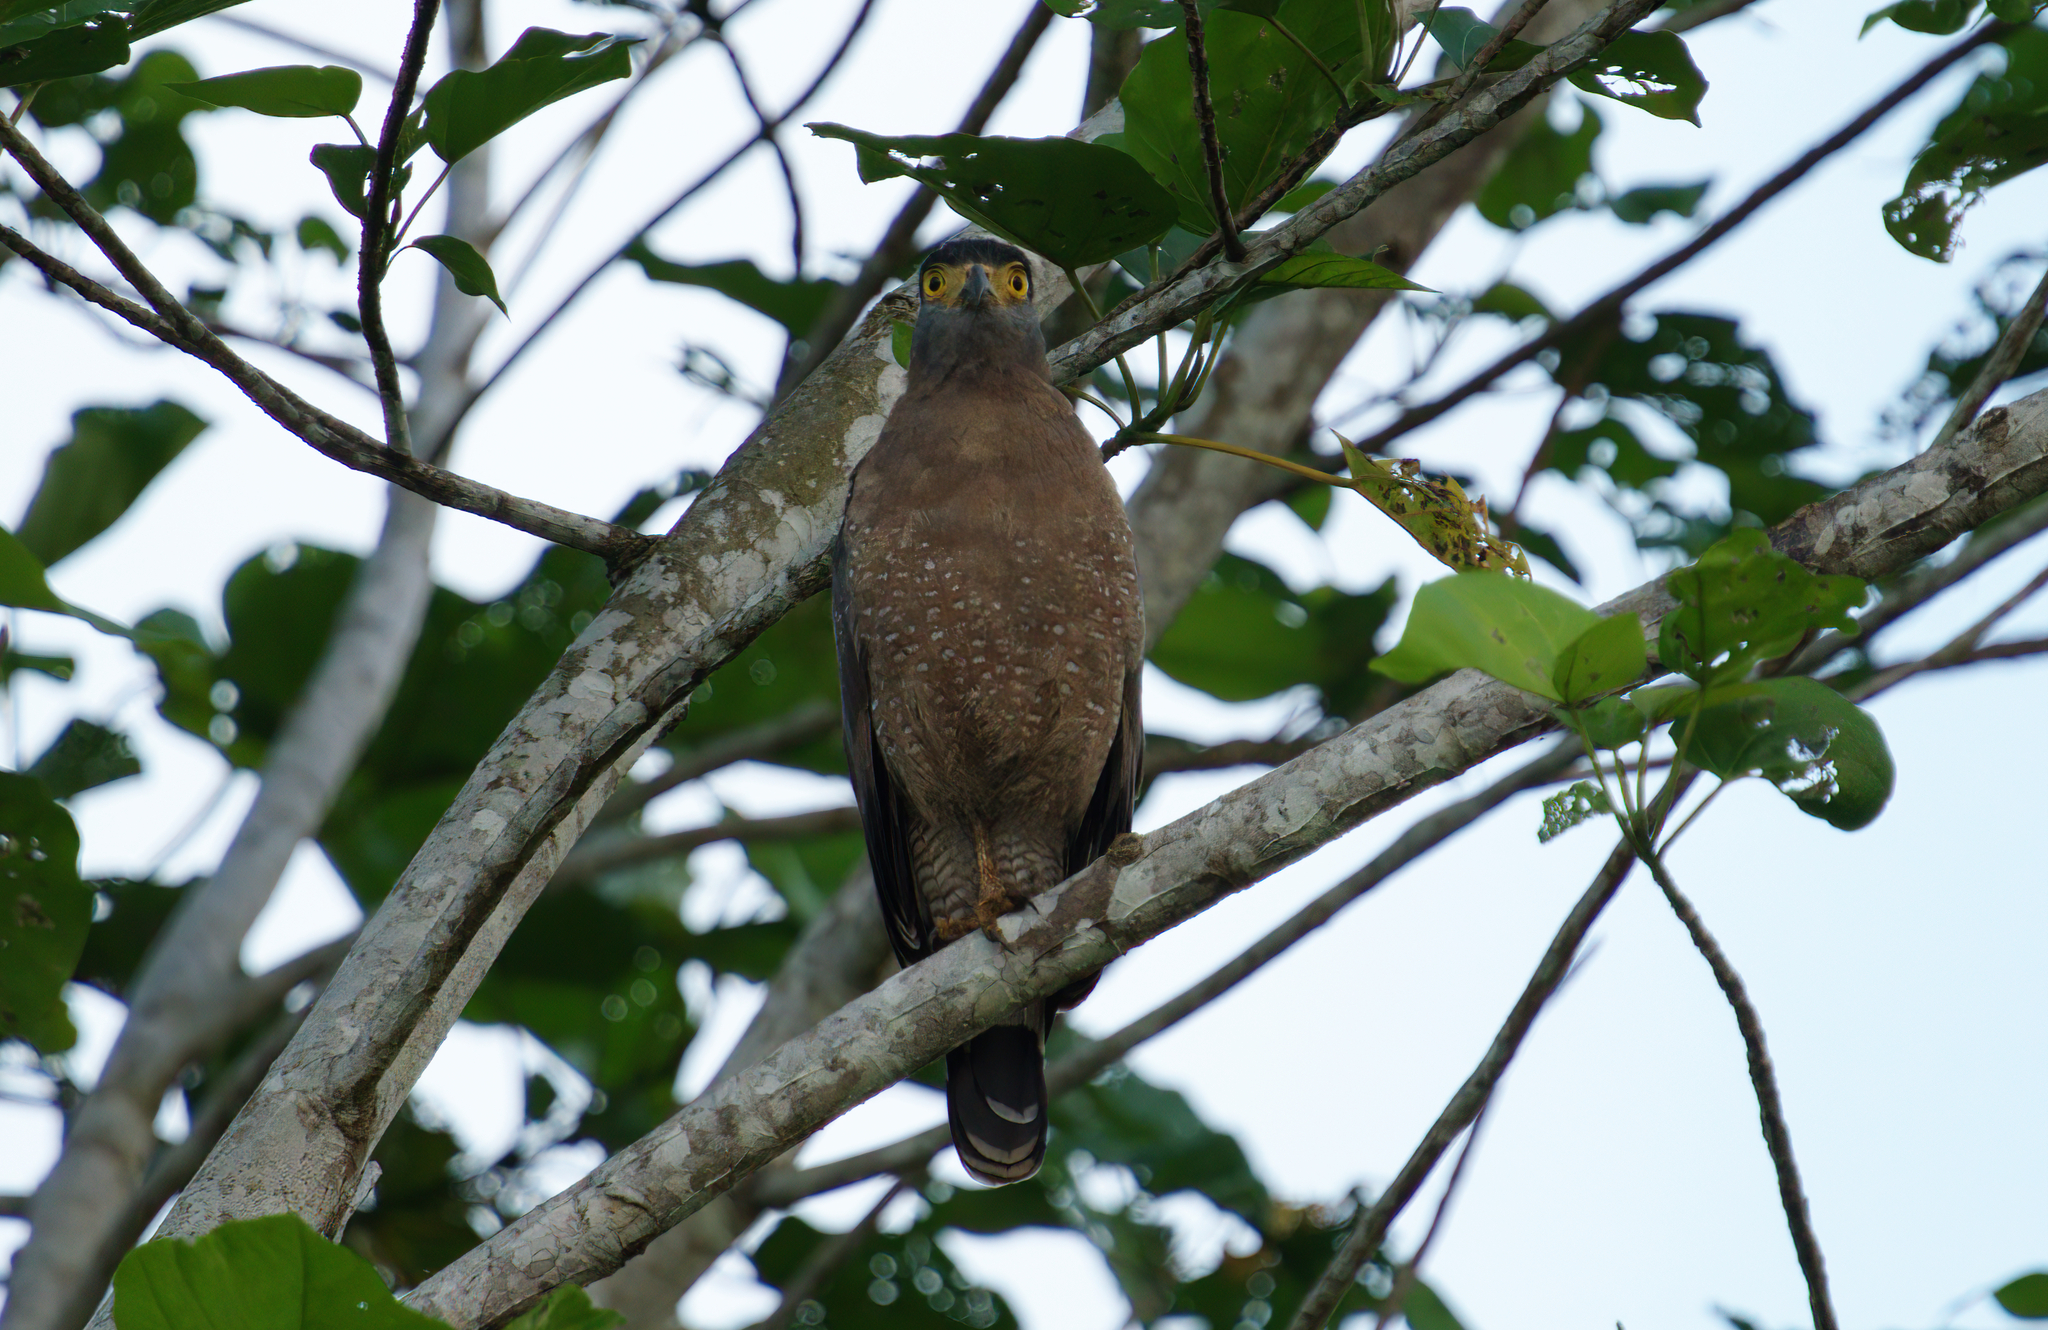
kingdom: Animalia
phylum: Chordata
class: Aves
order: Accipitriformes
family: Accipitridae
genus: Spilornis
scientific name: Spilornis cheela
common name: Crested serpent eagle
